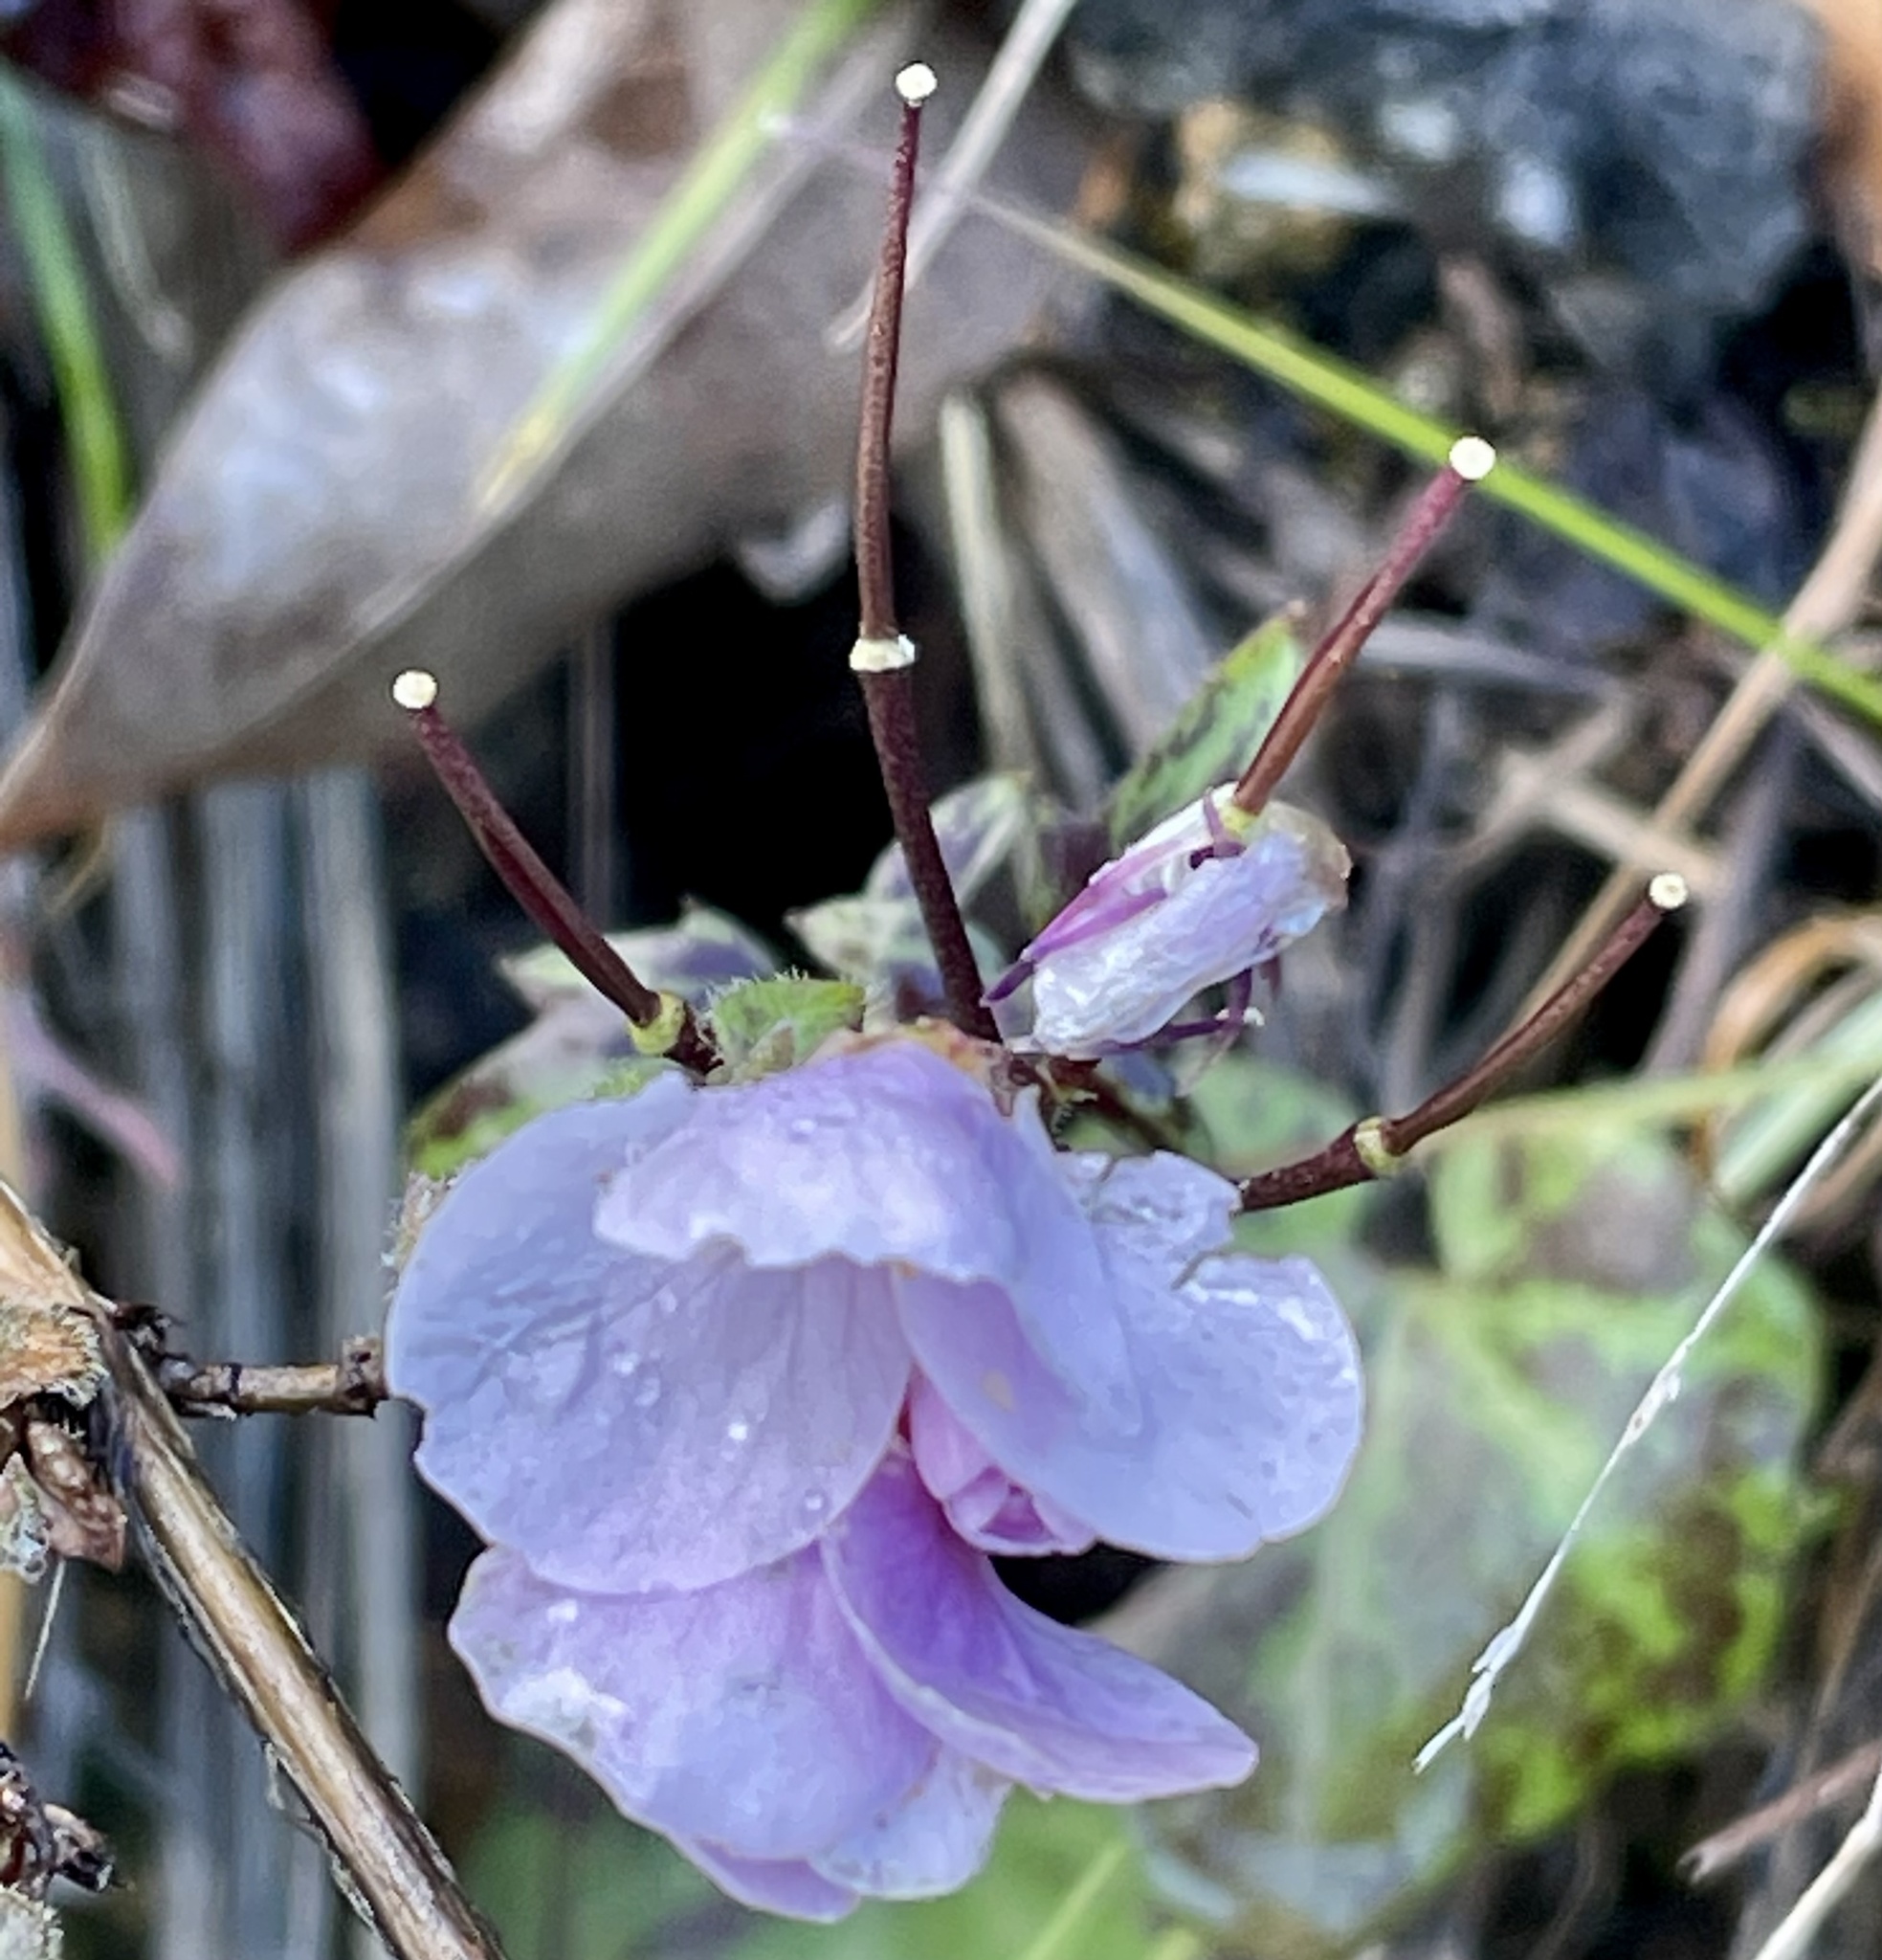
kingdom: Plantae
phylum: Tracheophyta
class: Magnoliopsida
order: Brassicales
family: Brassicaceae
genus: Cardamine
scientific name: Cardamine californica
